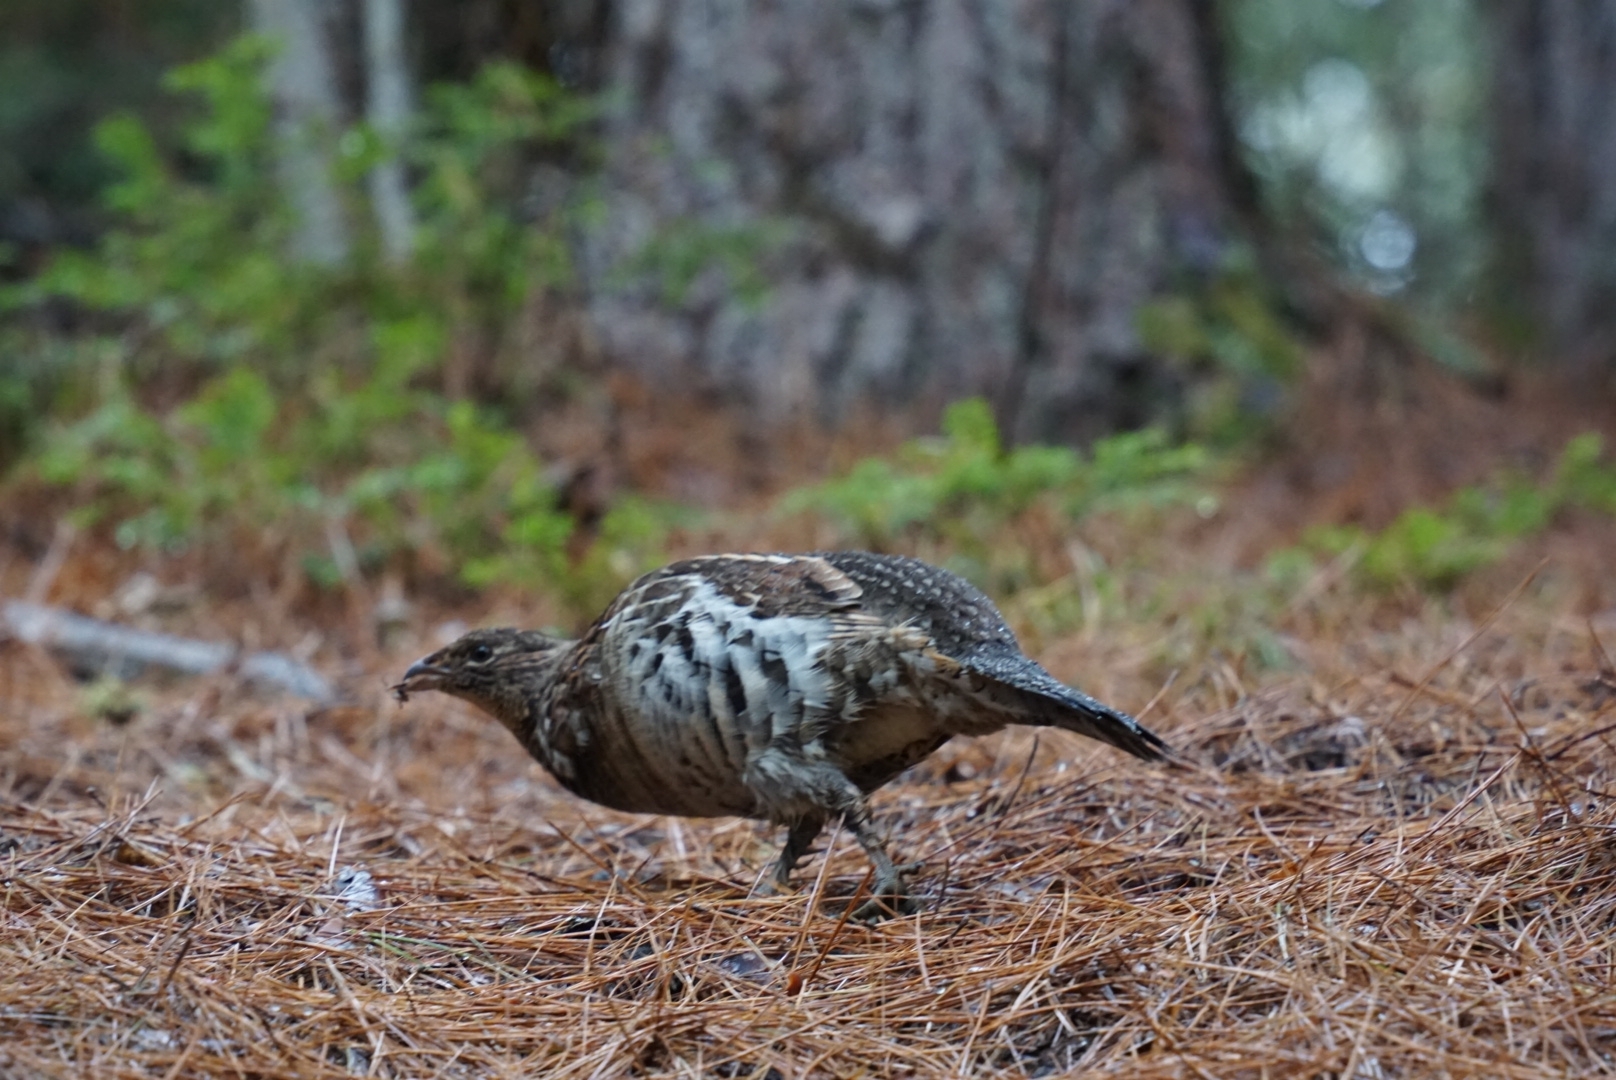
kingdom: Animalia
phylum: Chordata
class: Aves
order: Galliformes
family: Phasianidae
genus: Bonasa
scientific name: Bonasa umbellus
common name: Ruffed grouse
